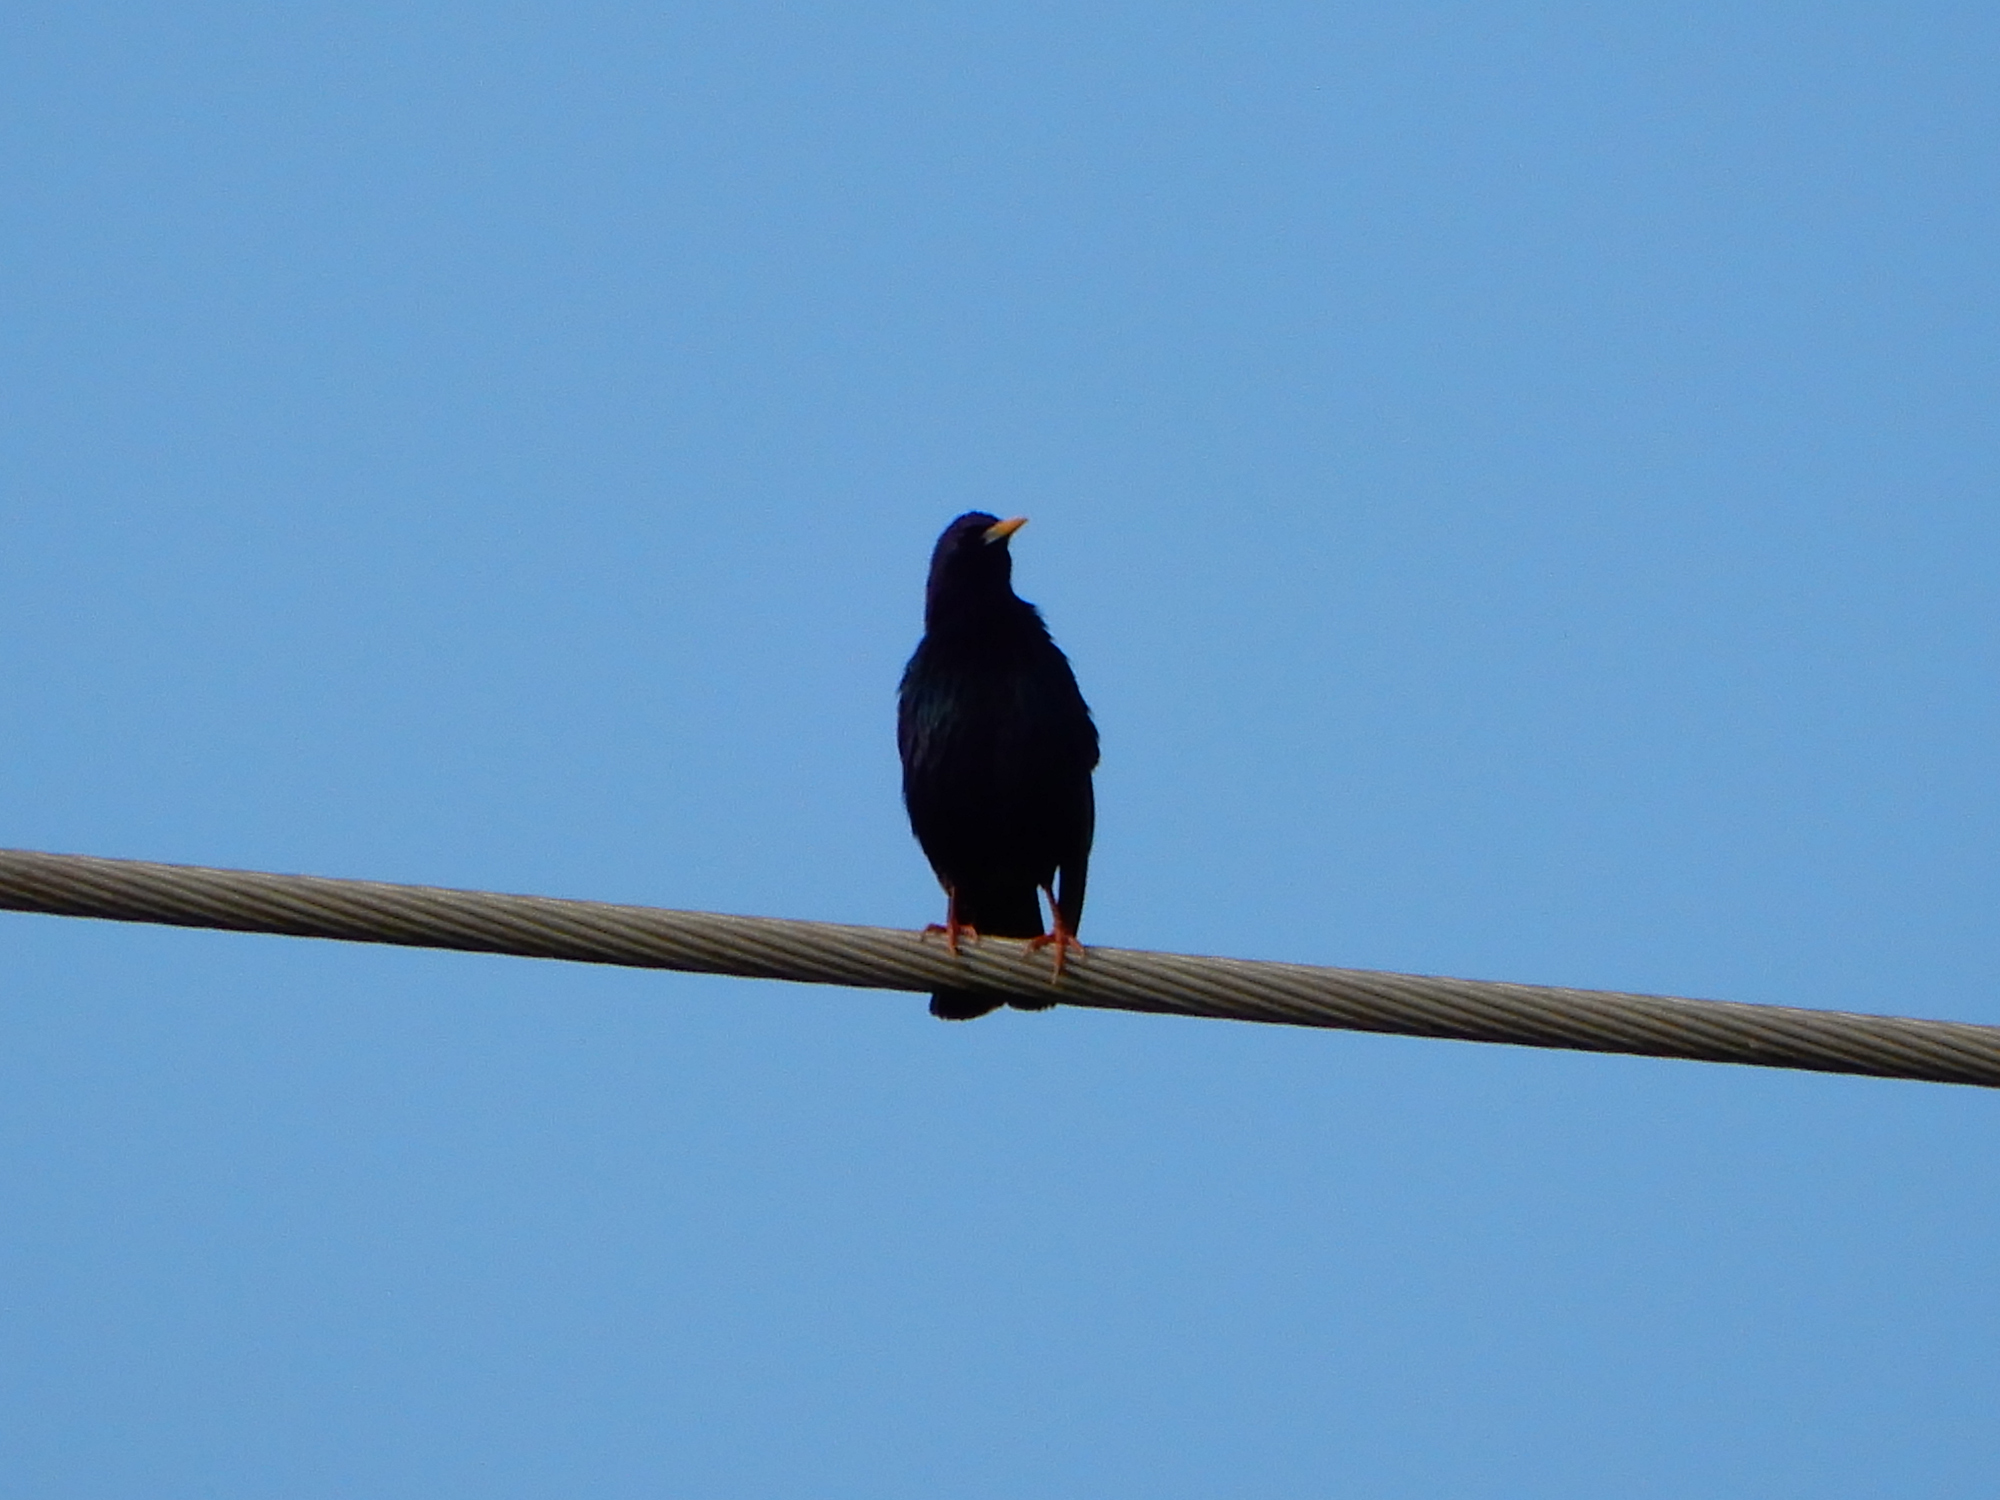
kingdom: Animalia
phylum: Chordata
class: Aves
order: Passeriformes
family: Sturnidae
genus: Sturnus
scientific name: Sturnus vulgaris
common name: Common starling
